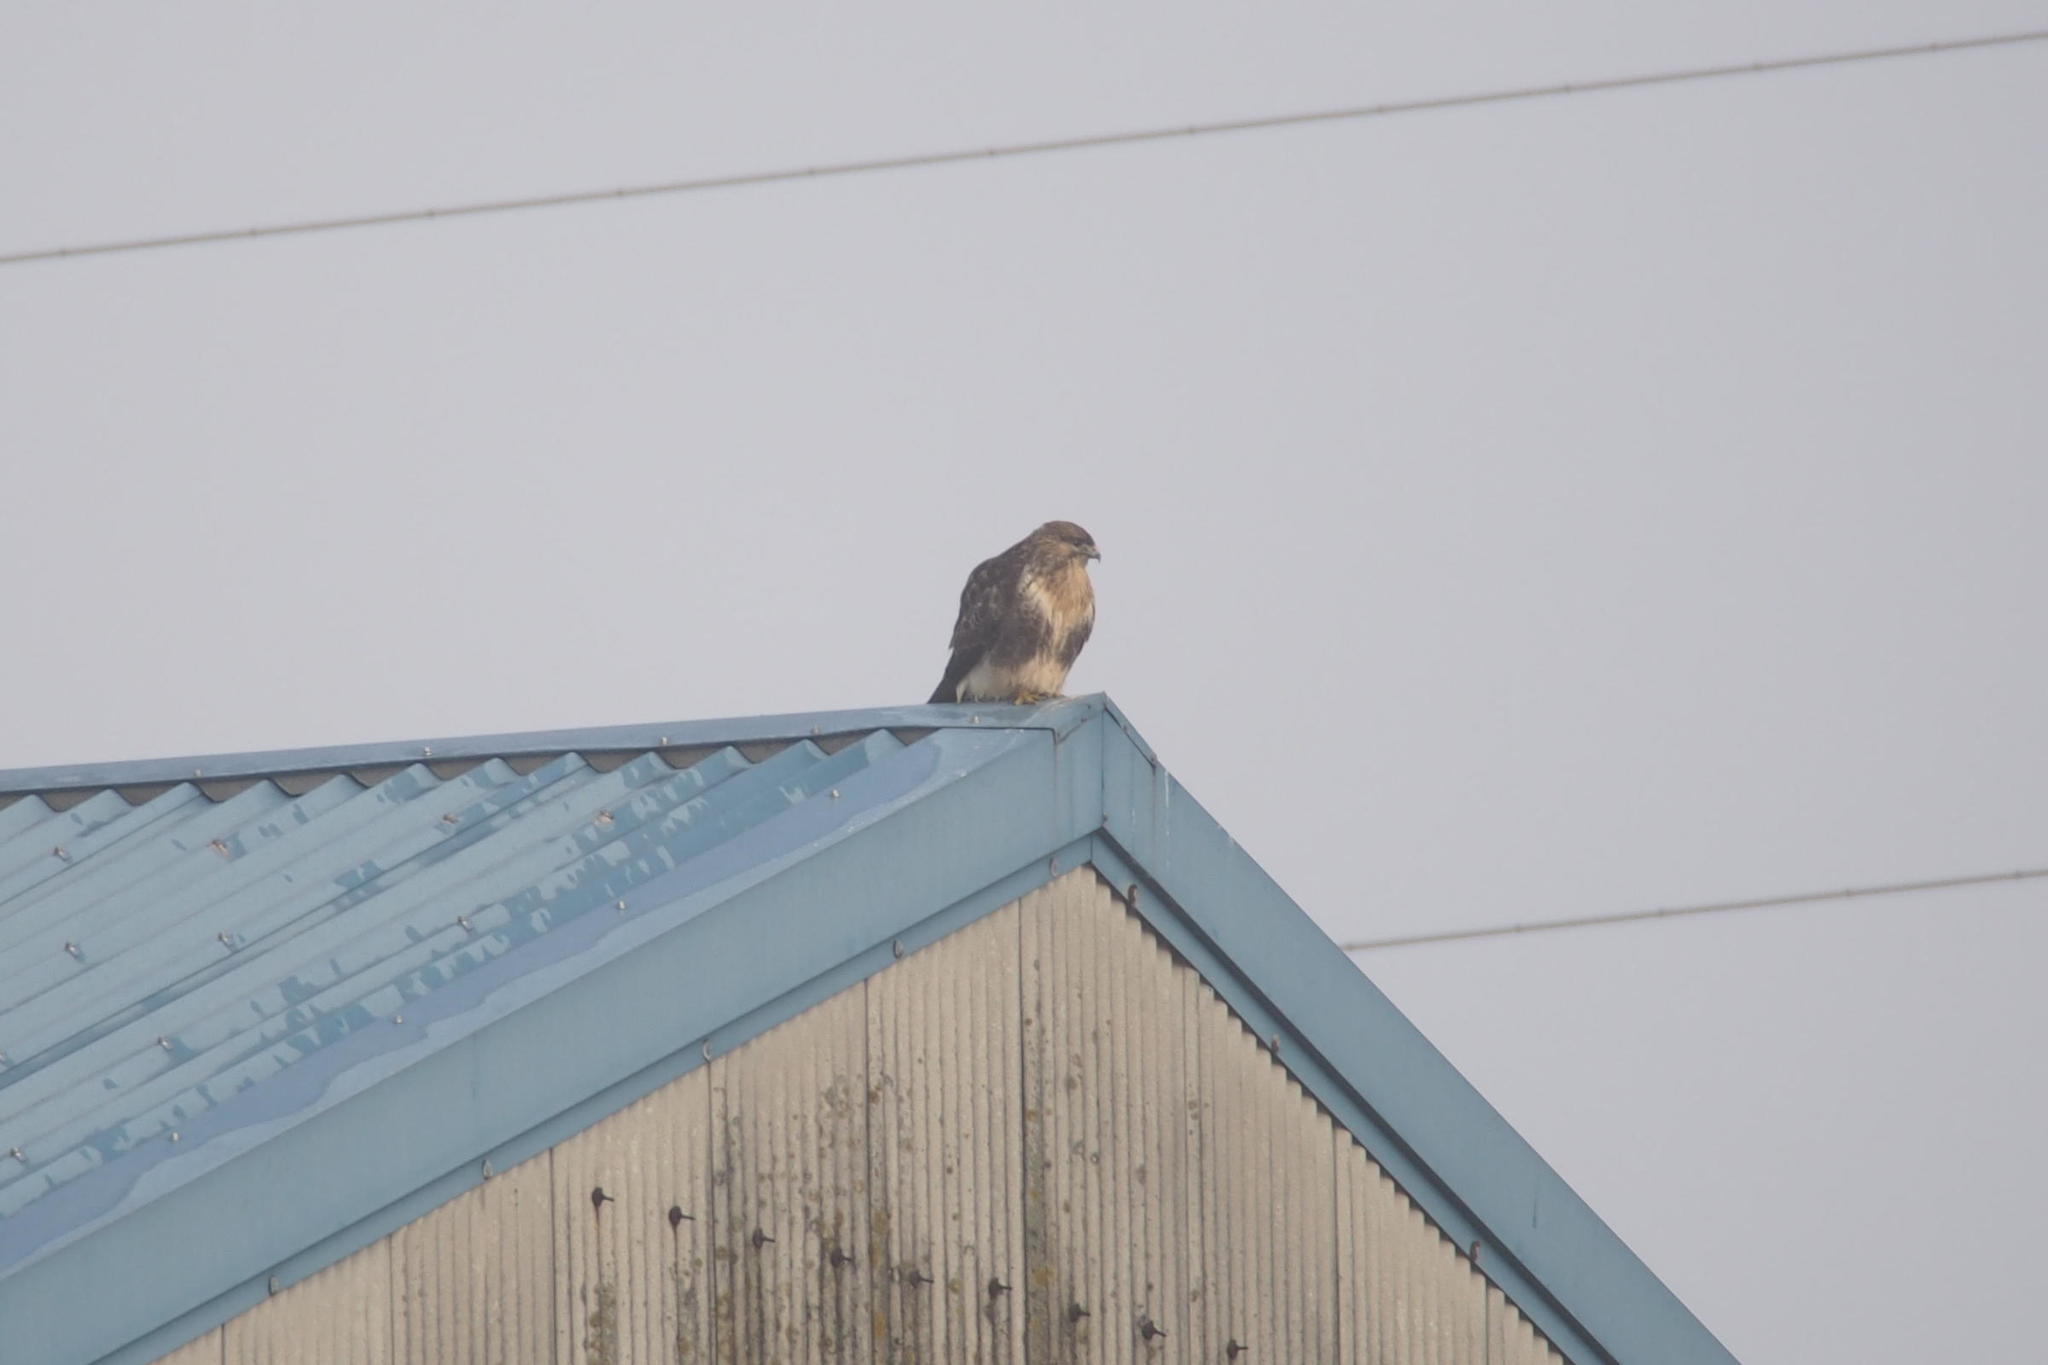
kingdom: Animalia
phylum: Chordata
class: Aves
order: Accipitriformes
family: Accipitridae
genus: Buteo
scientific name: Buteo japonicus
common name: Eastern buzzard
